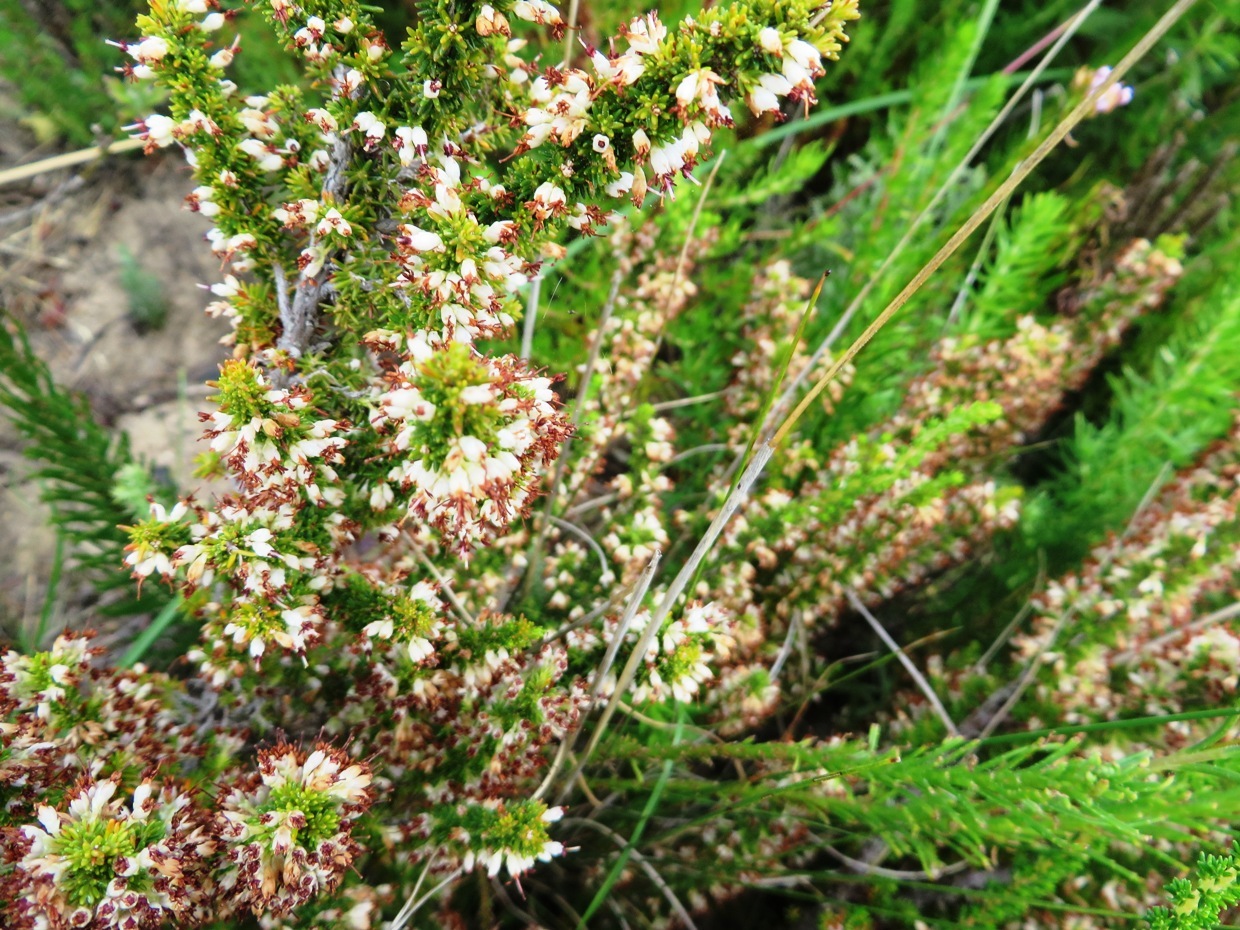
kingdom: Plantae
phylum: Tracheophyta
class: Magnoliopsida
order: Ericales
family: Ericaceae
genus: Erica
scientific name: Erica imbricata
